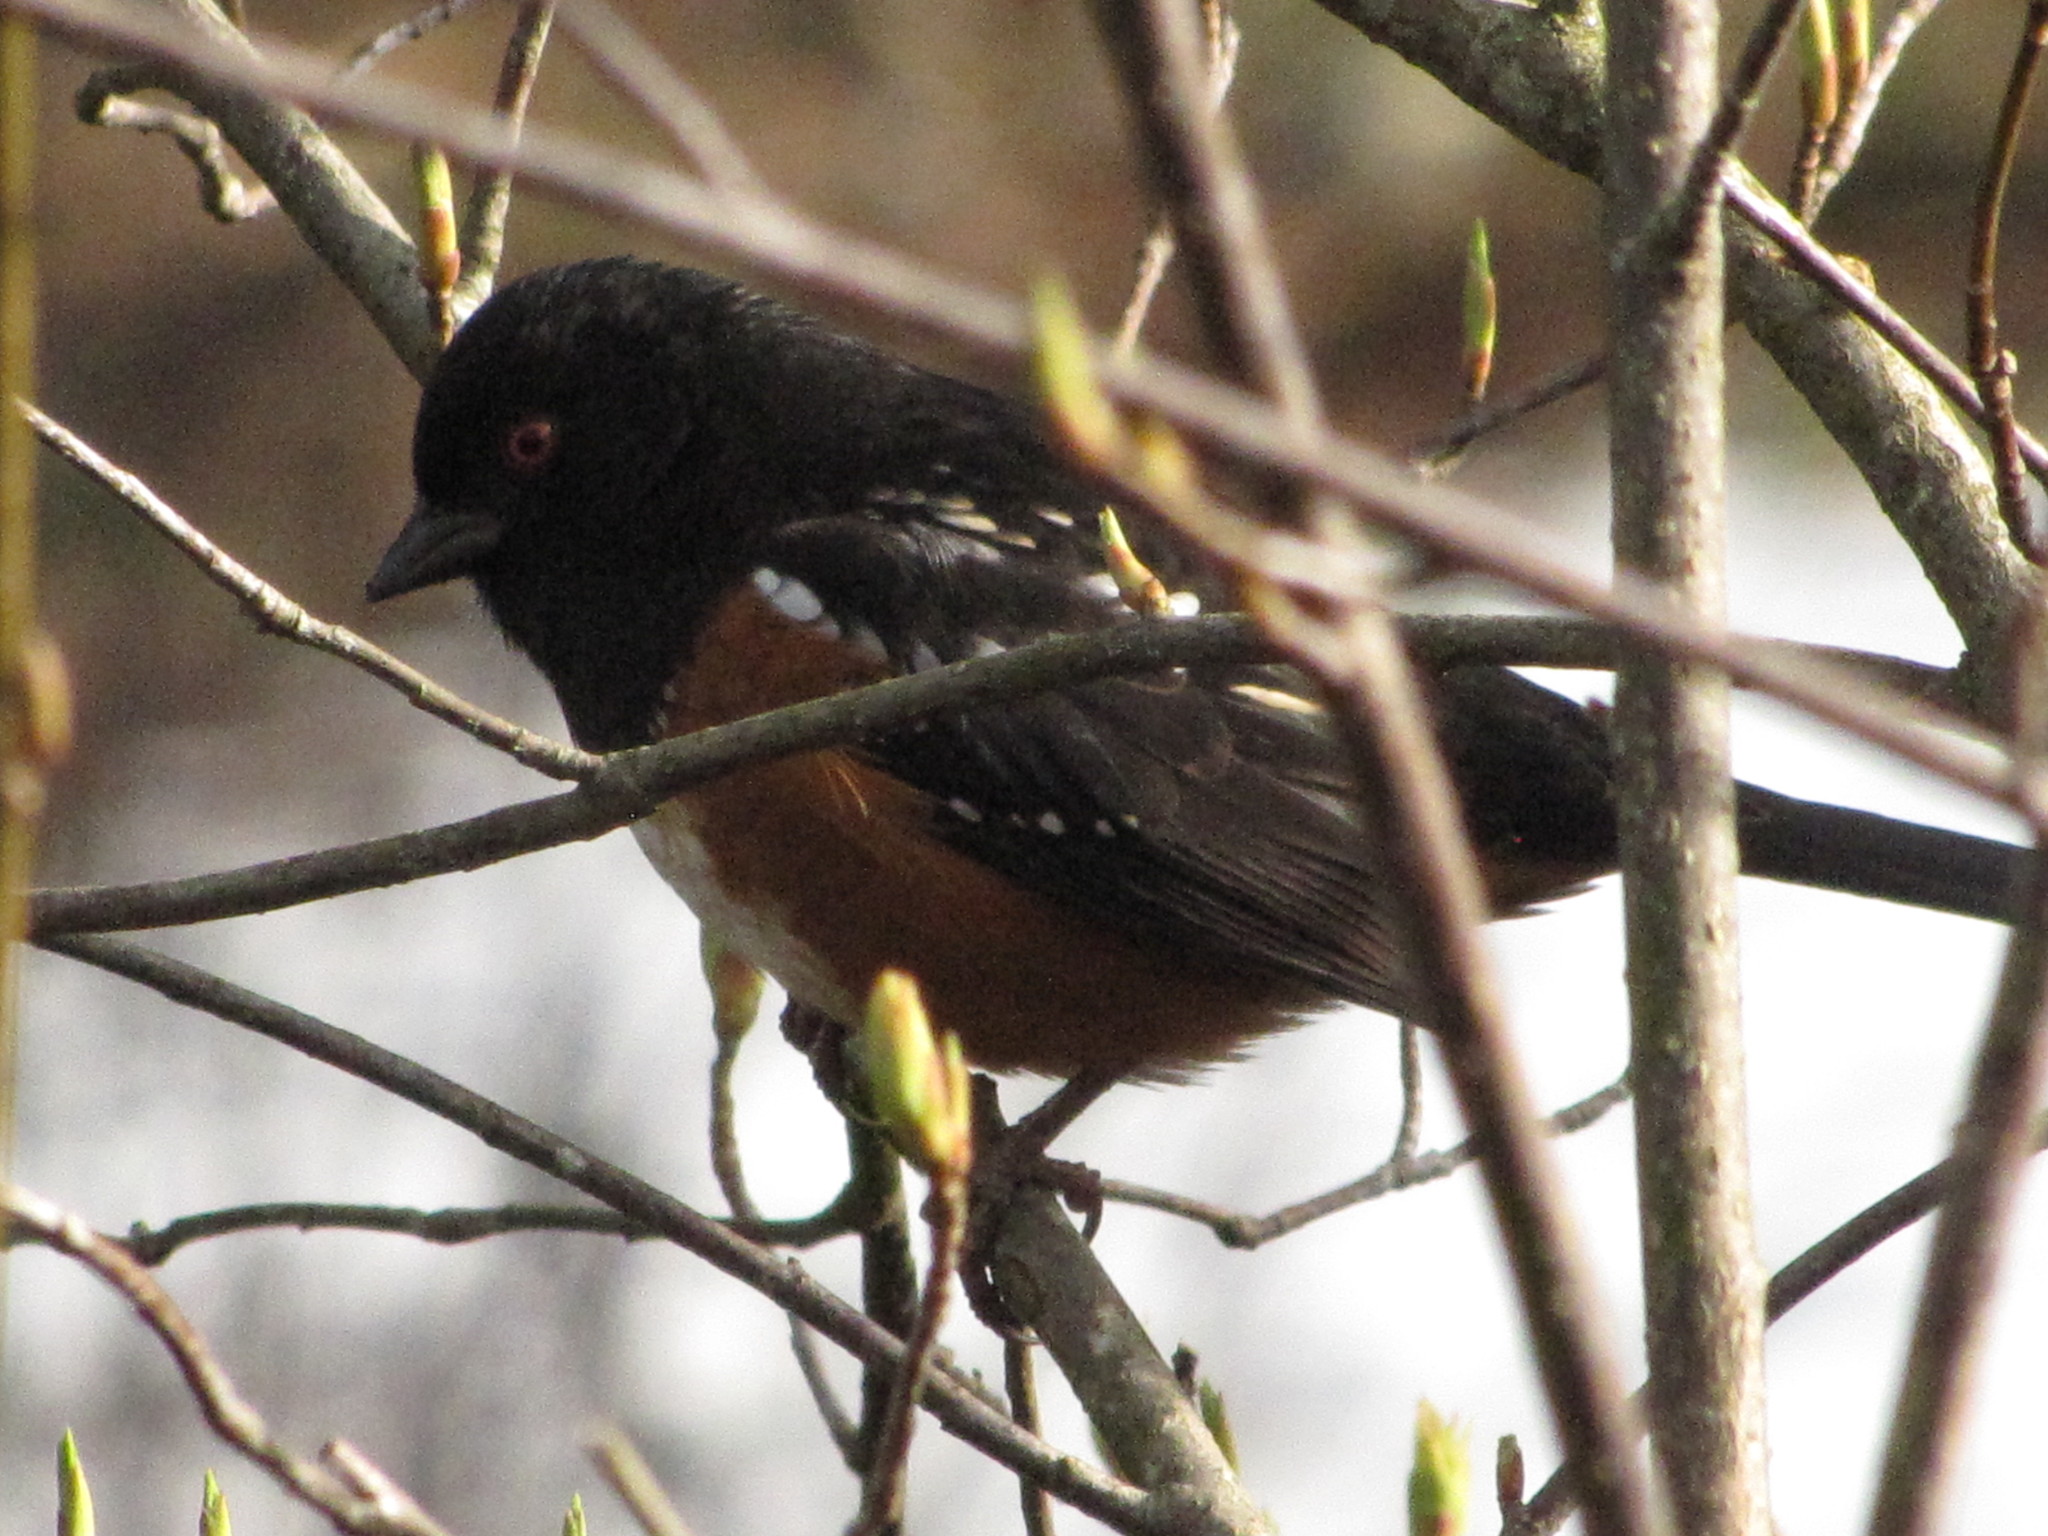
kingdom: Animalia
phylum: Chordata
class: Aves
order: Passeriformes
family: Passerellidae
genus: Pipilo
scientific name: Pipilo maculatus
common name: Spotted towhee
